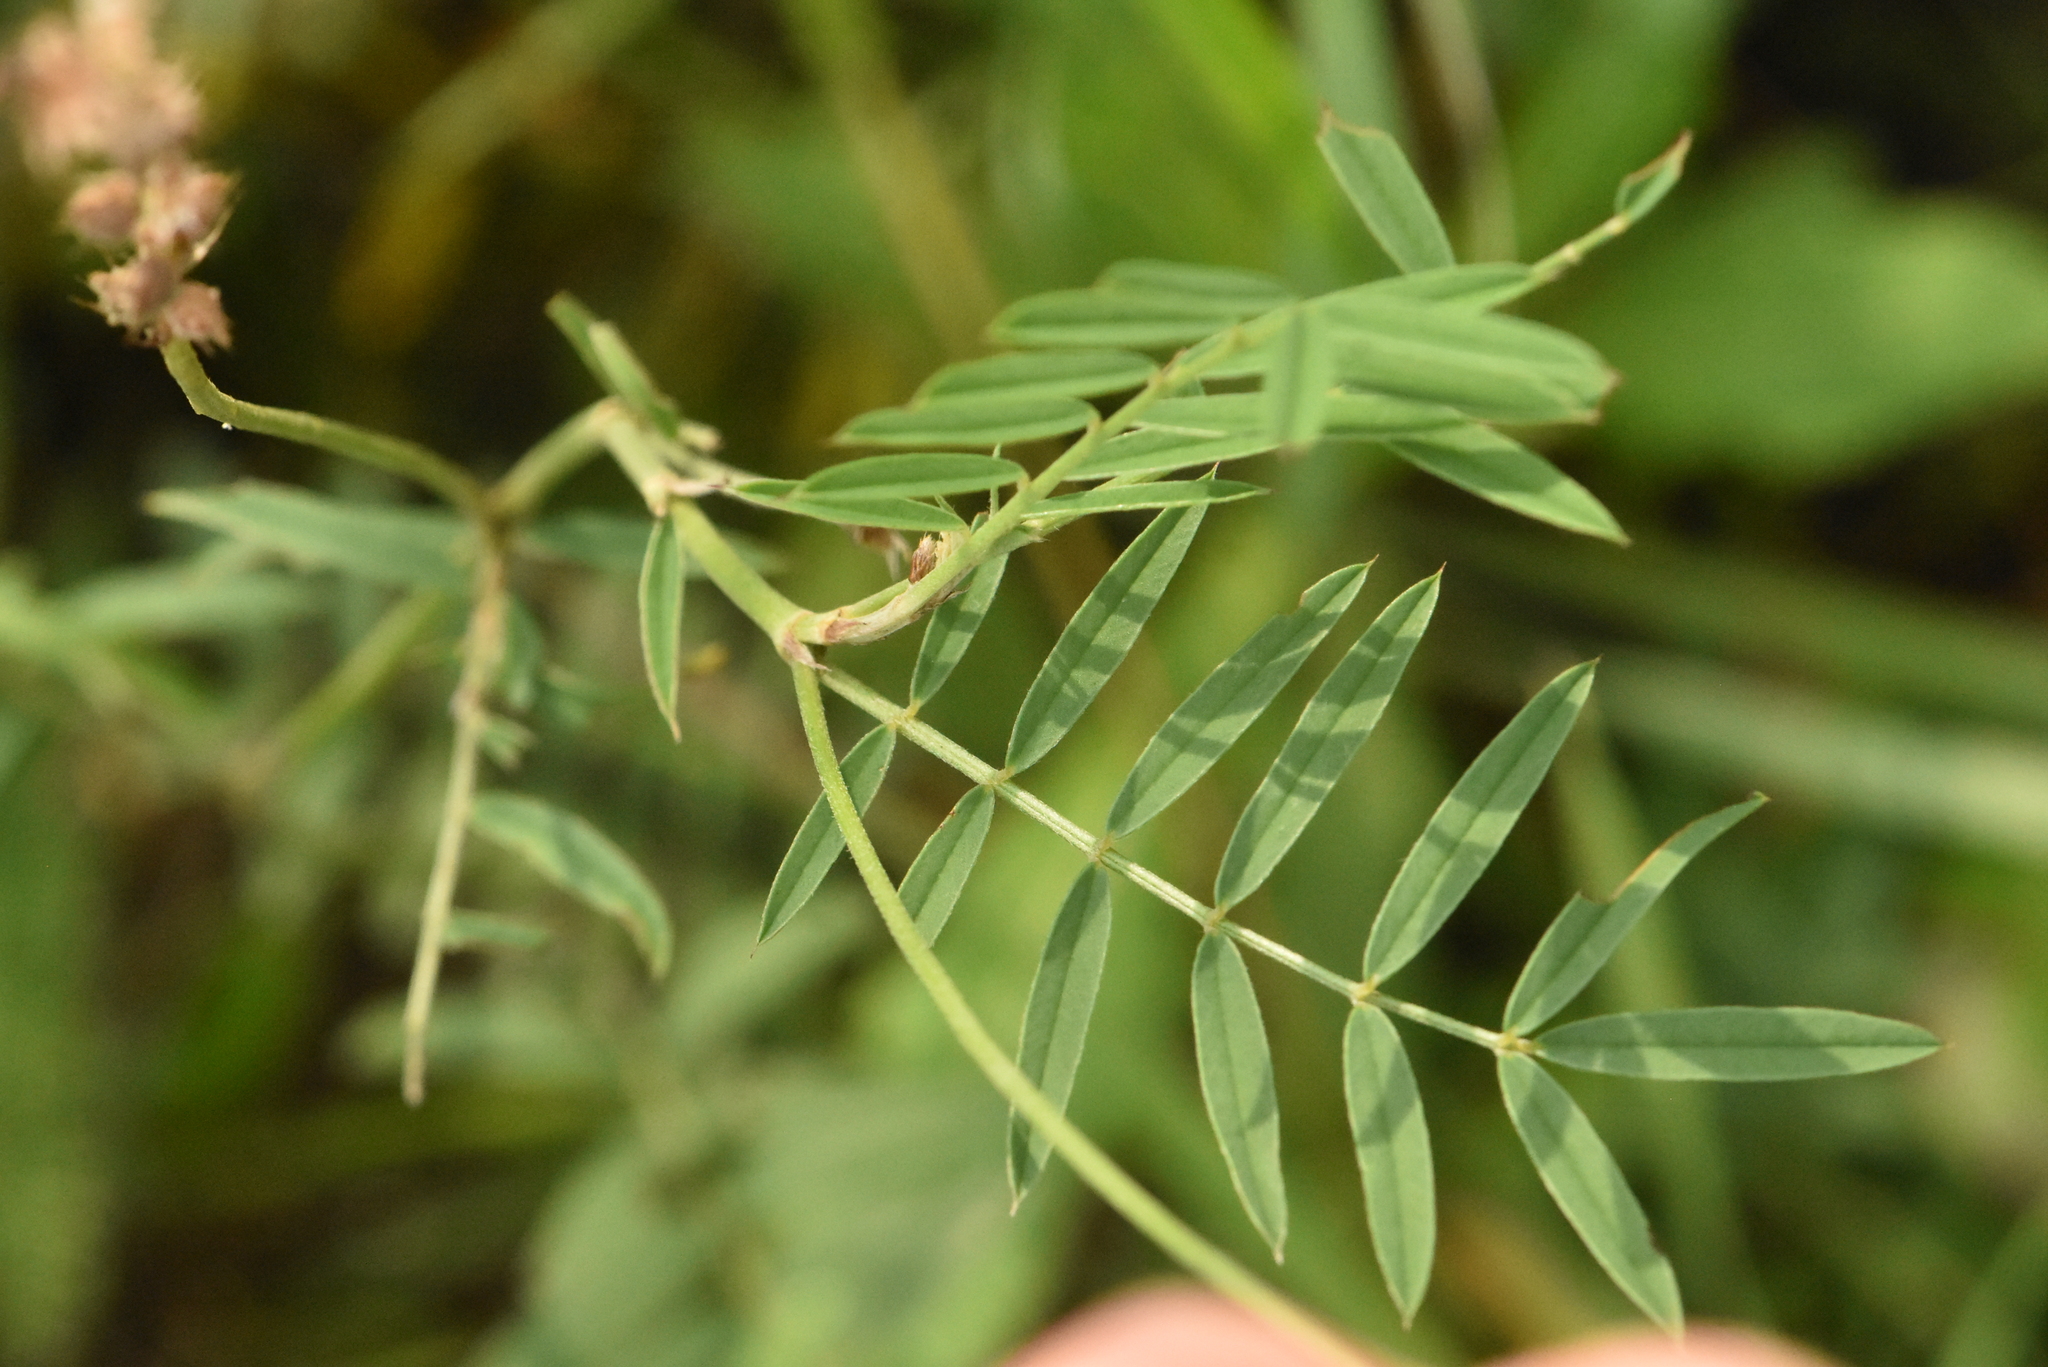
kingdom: Plantae
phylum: Tracheophyta
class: Magnoliopsida
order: Fabales
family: Fabaceae
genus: Onobrychis
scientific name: Onobrychis arenaria
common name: Sand esparcet
